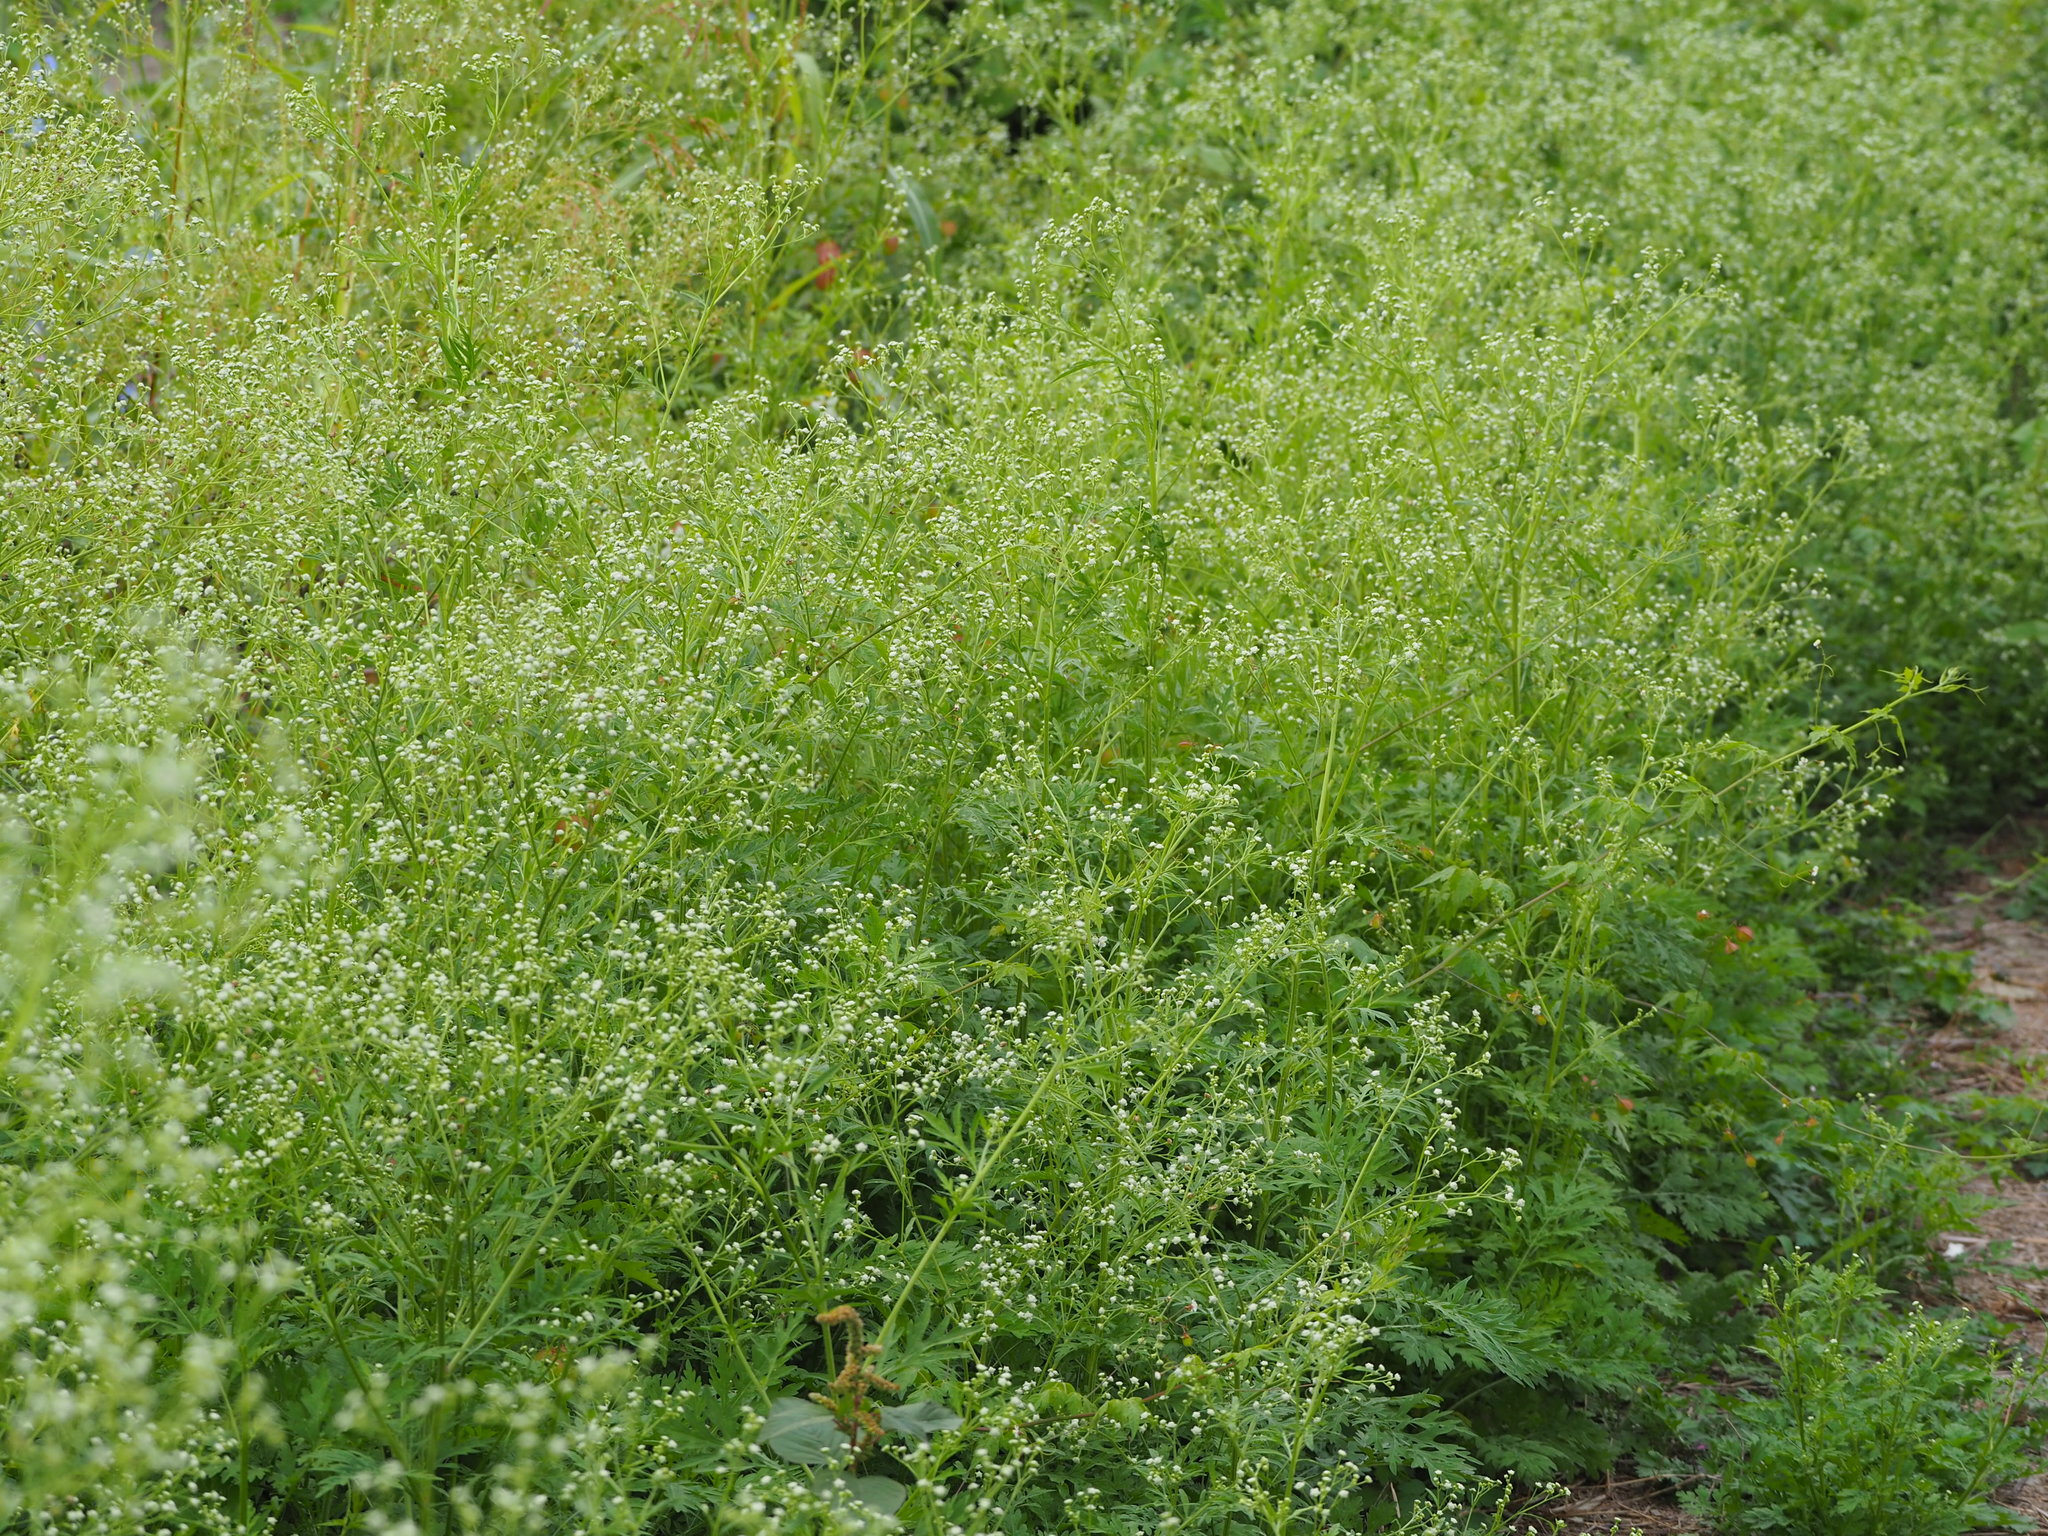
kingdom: Plantae
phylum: Tracheophyta
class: Magnoliopsida
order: Asterales
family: Asteraceae
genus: Parthenium
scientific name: Parthenium hysterophorus
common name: Santa maria feverfew
